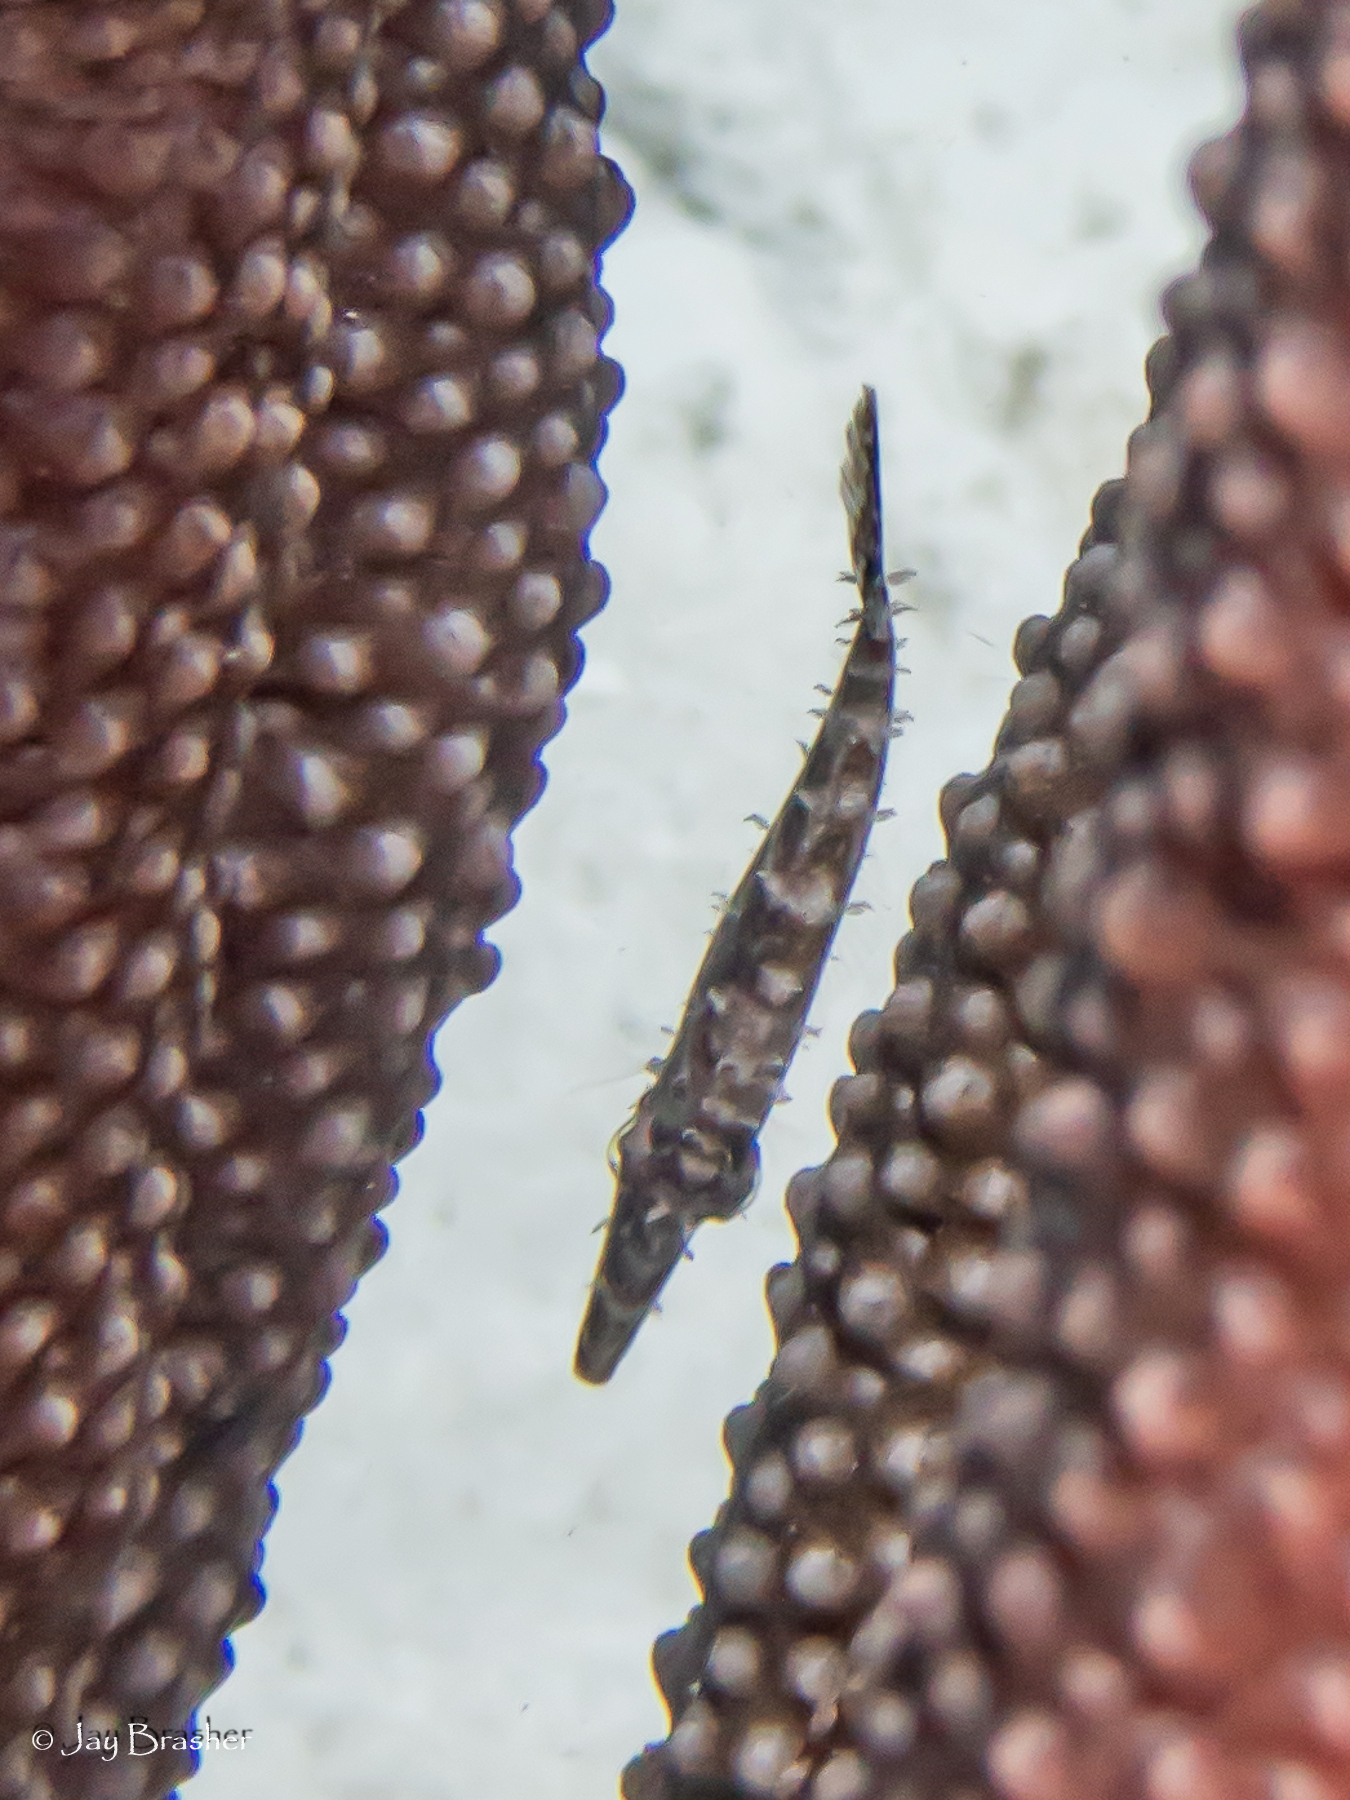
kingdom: Animalia
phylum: Chordata
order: Tetraodontiformes
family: Monacanthidae
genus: Monacanthus
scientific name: Monacanthus tuckeri
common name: Slender filefish
